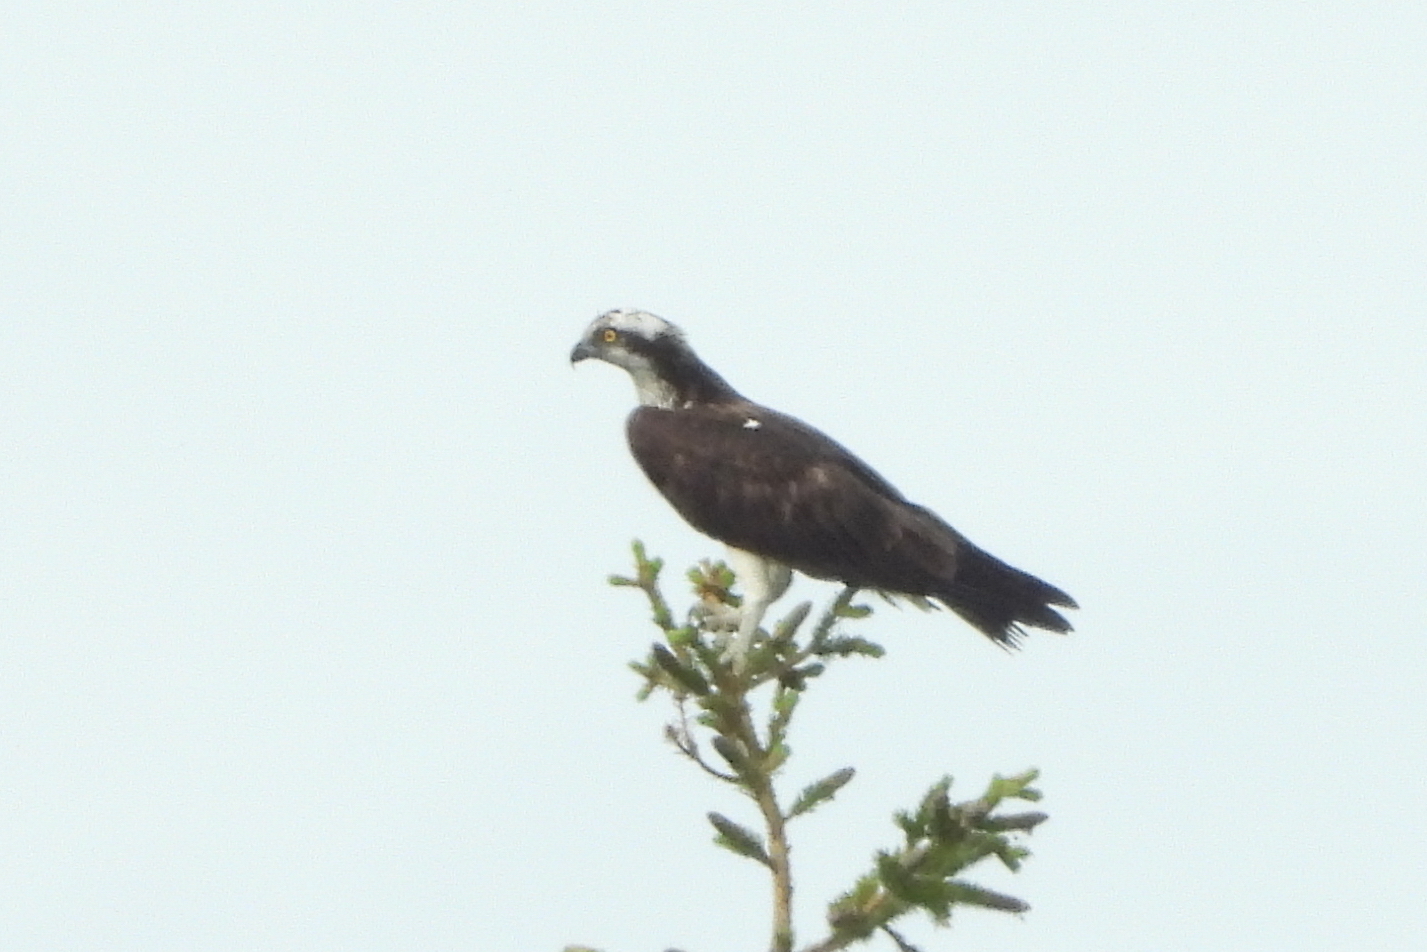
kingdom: Animalia
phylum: Chordata
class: Aves
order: Accipitriformes
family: Pandionidae
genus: Pandion
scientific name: Pandion haliaetus
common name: Osprey
